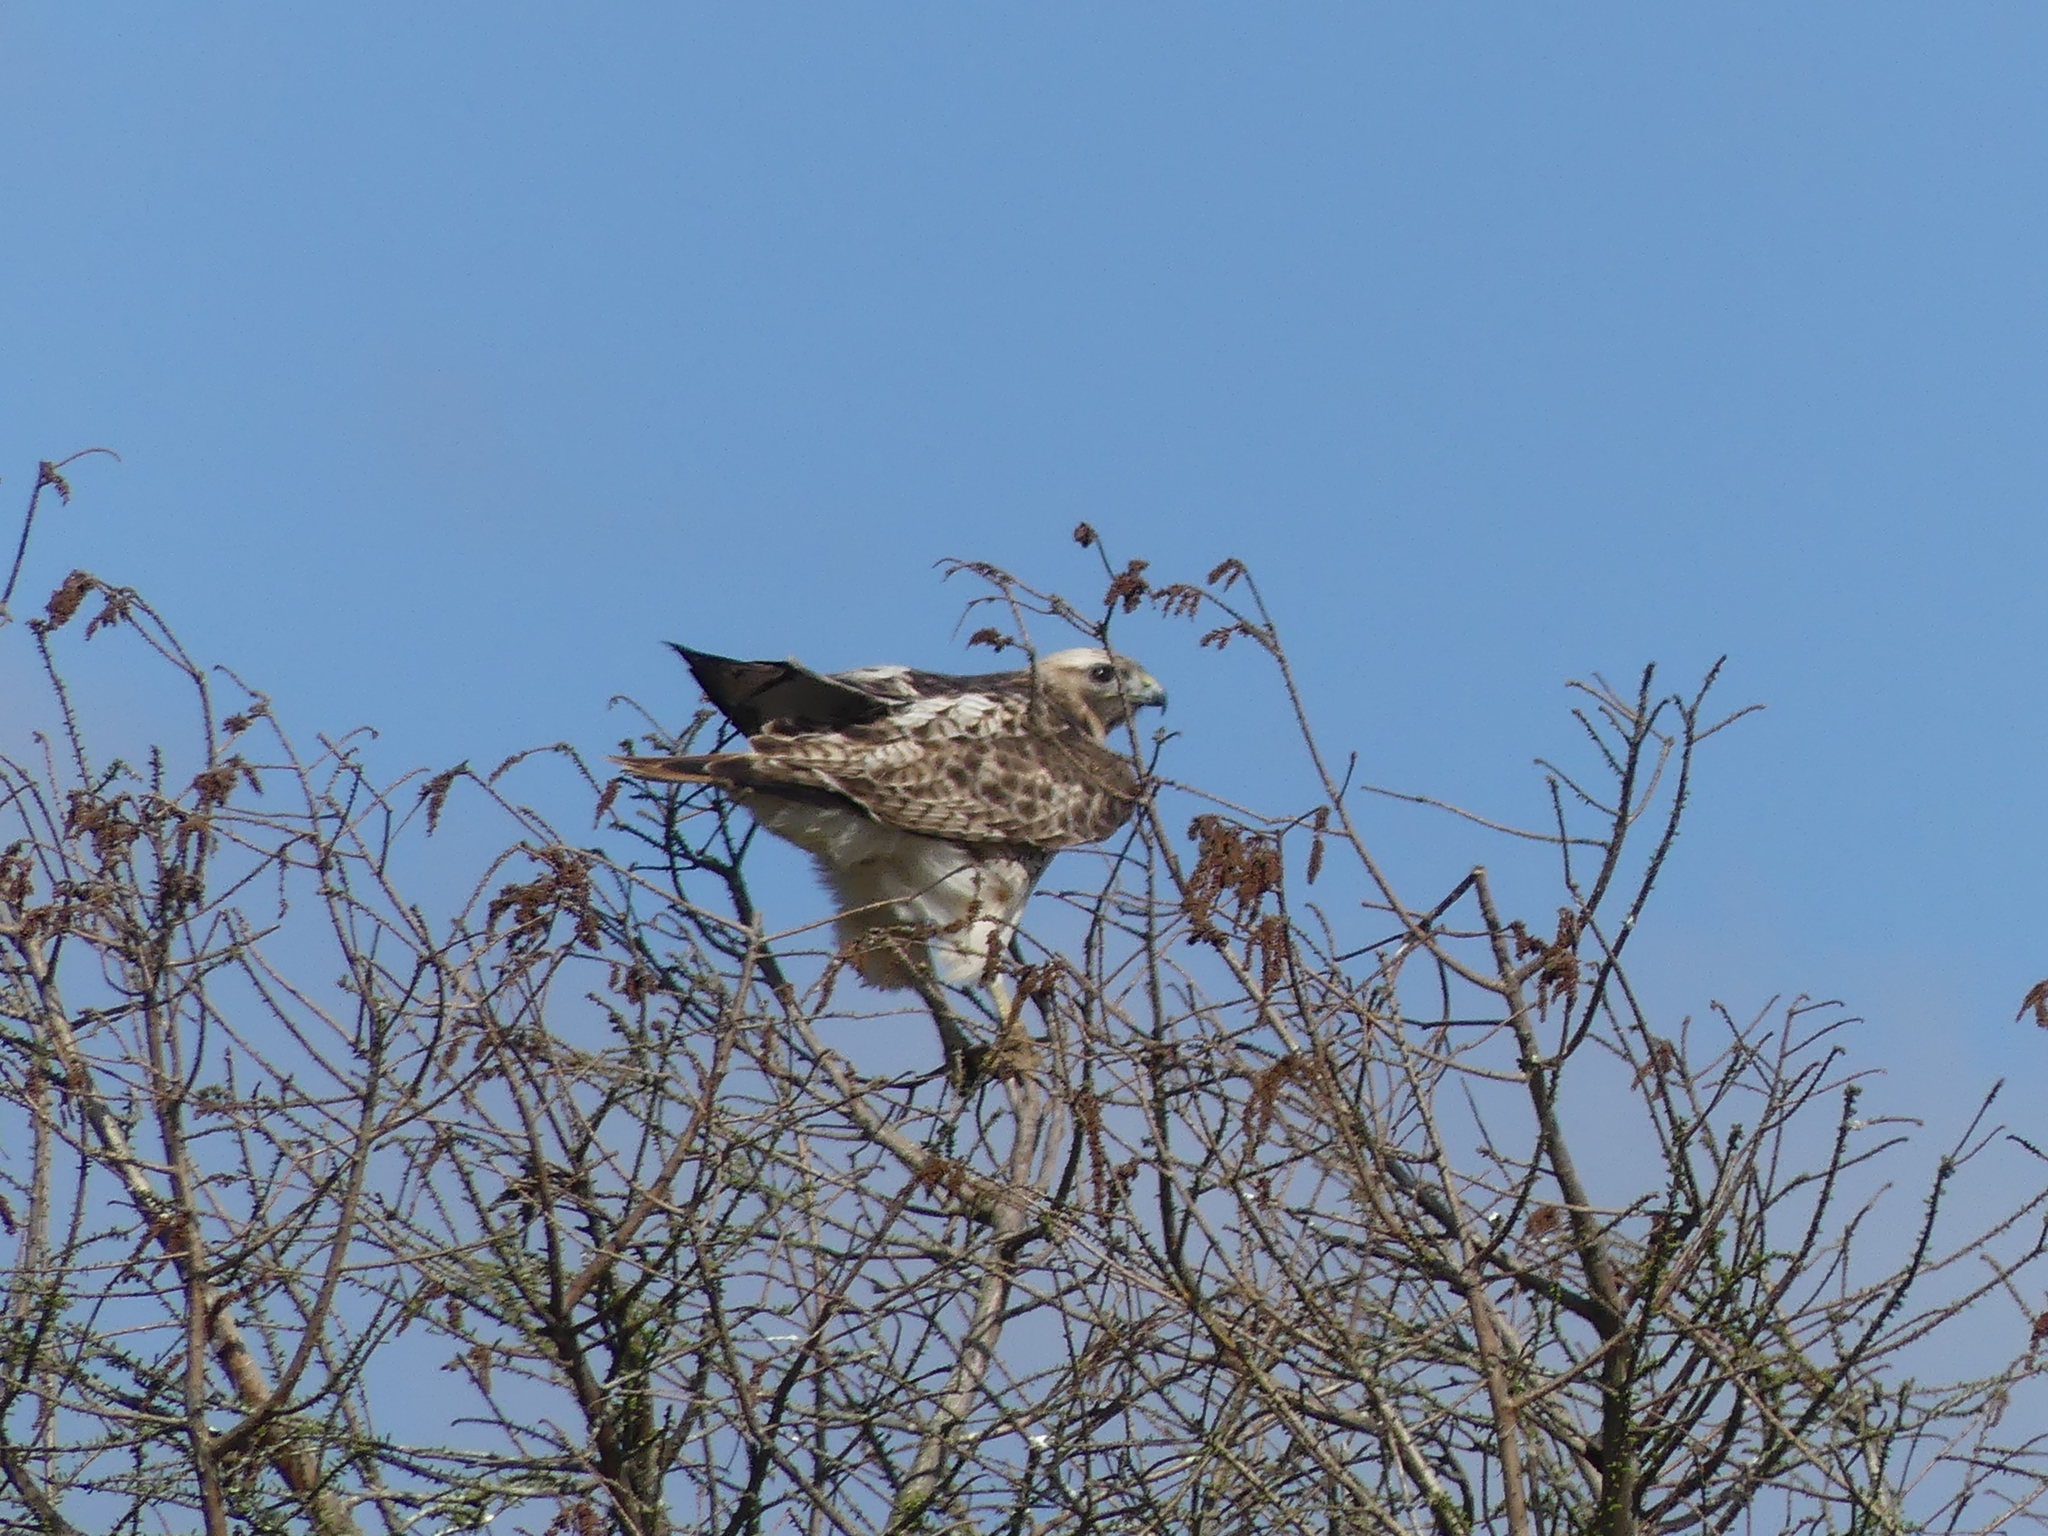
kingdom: Animalia
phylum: Chordata
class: Aves
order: Accipitriformes
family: Accipitridae
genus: Buteo
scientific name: Buteo jamaicensis
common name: Red-tailed hawk
